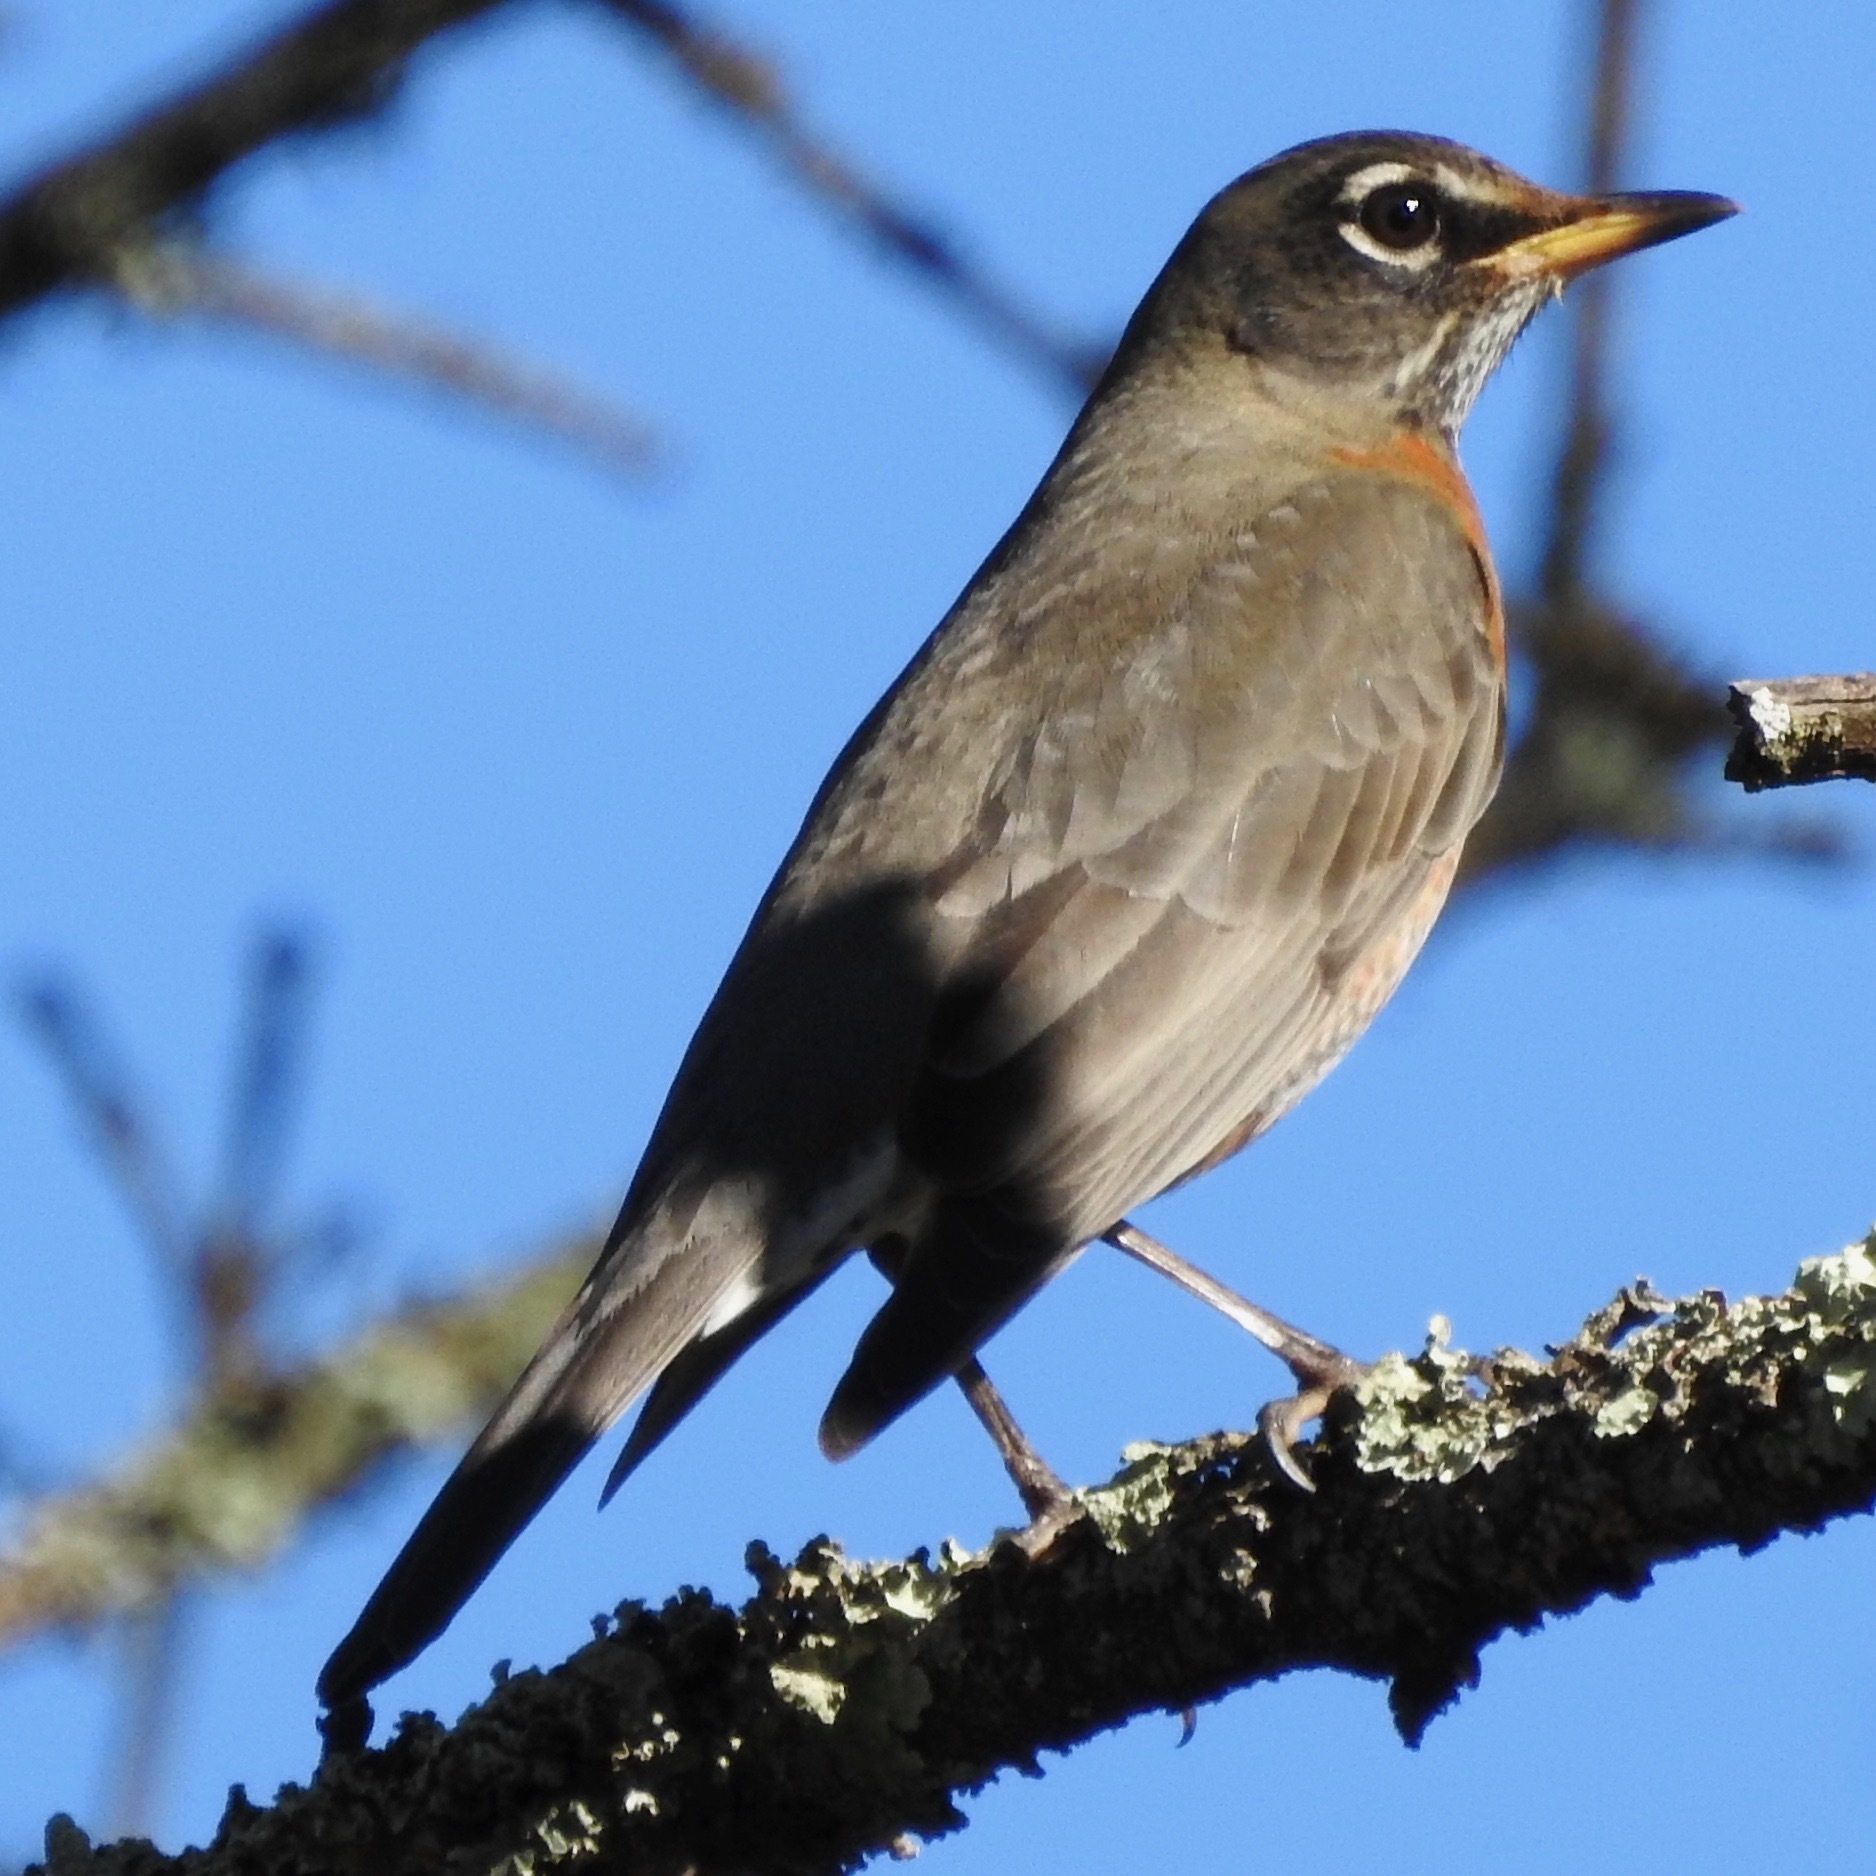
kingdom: Animalia
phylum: Chordata
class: Aves
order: Passeriformes
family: Turdidae
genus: Turdus
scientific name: Turdus migratorius
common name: American robin
